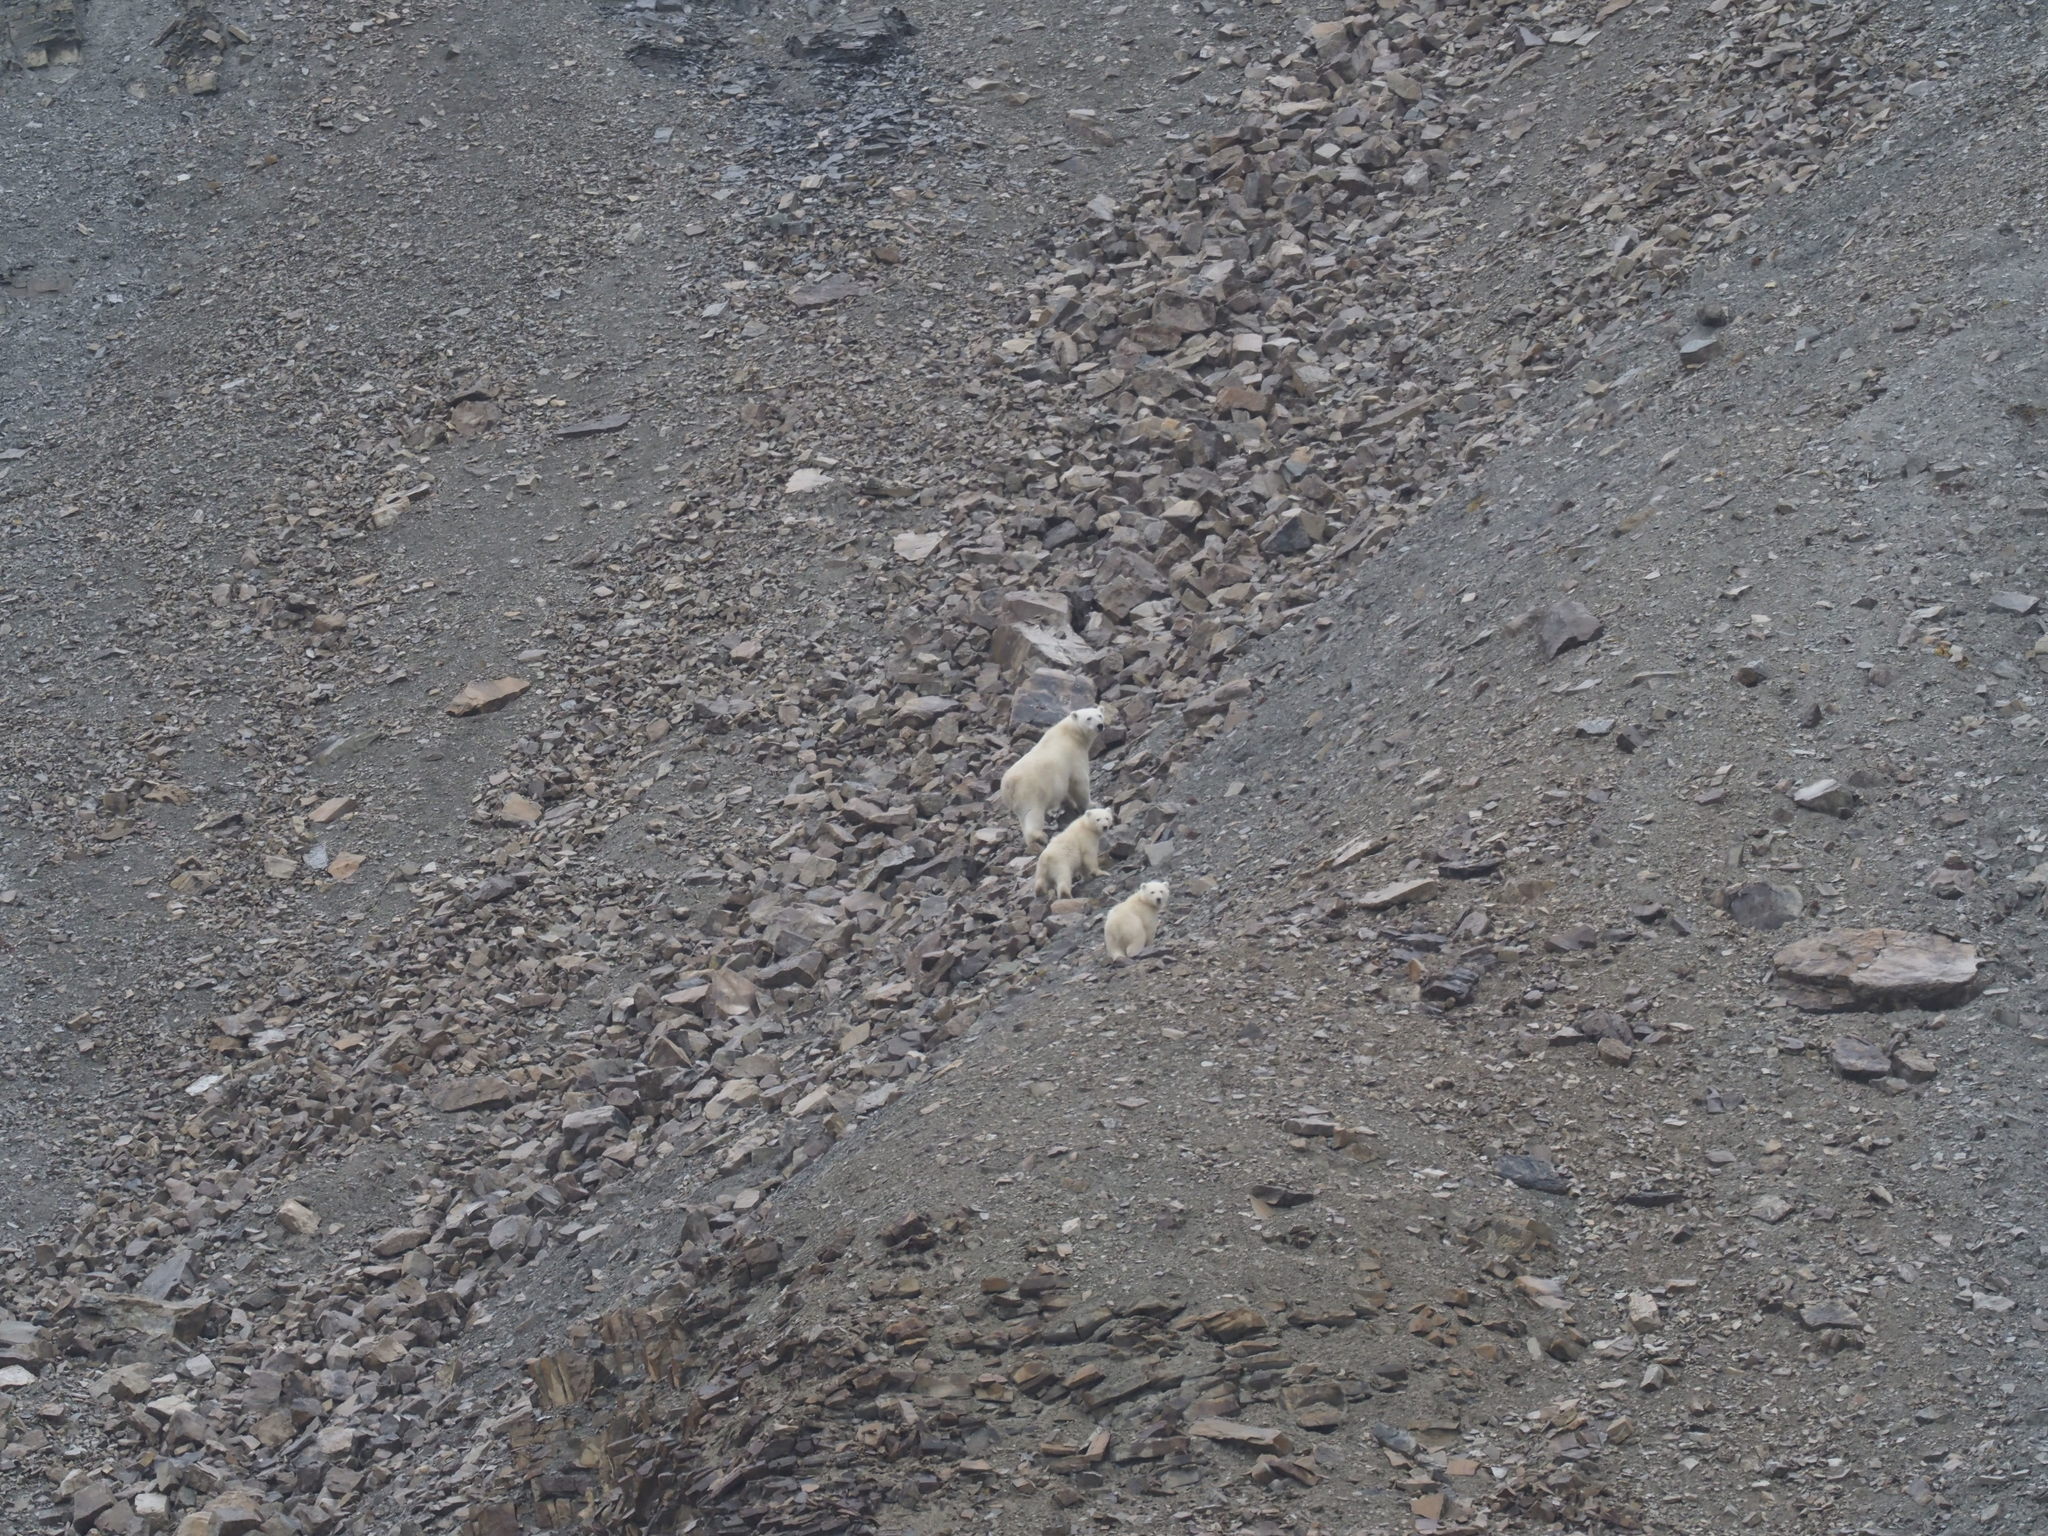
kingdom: Animalia
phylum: Chordata
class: Mammalia
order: Carnivora
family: Ursidae
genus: Ursus
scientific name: Ursus maritimus
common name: Polar bear
